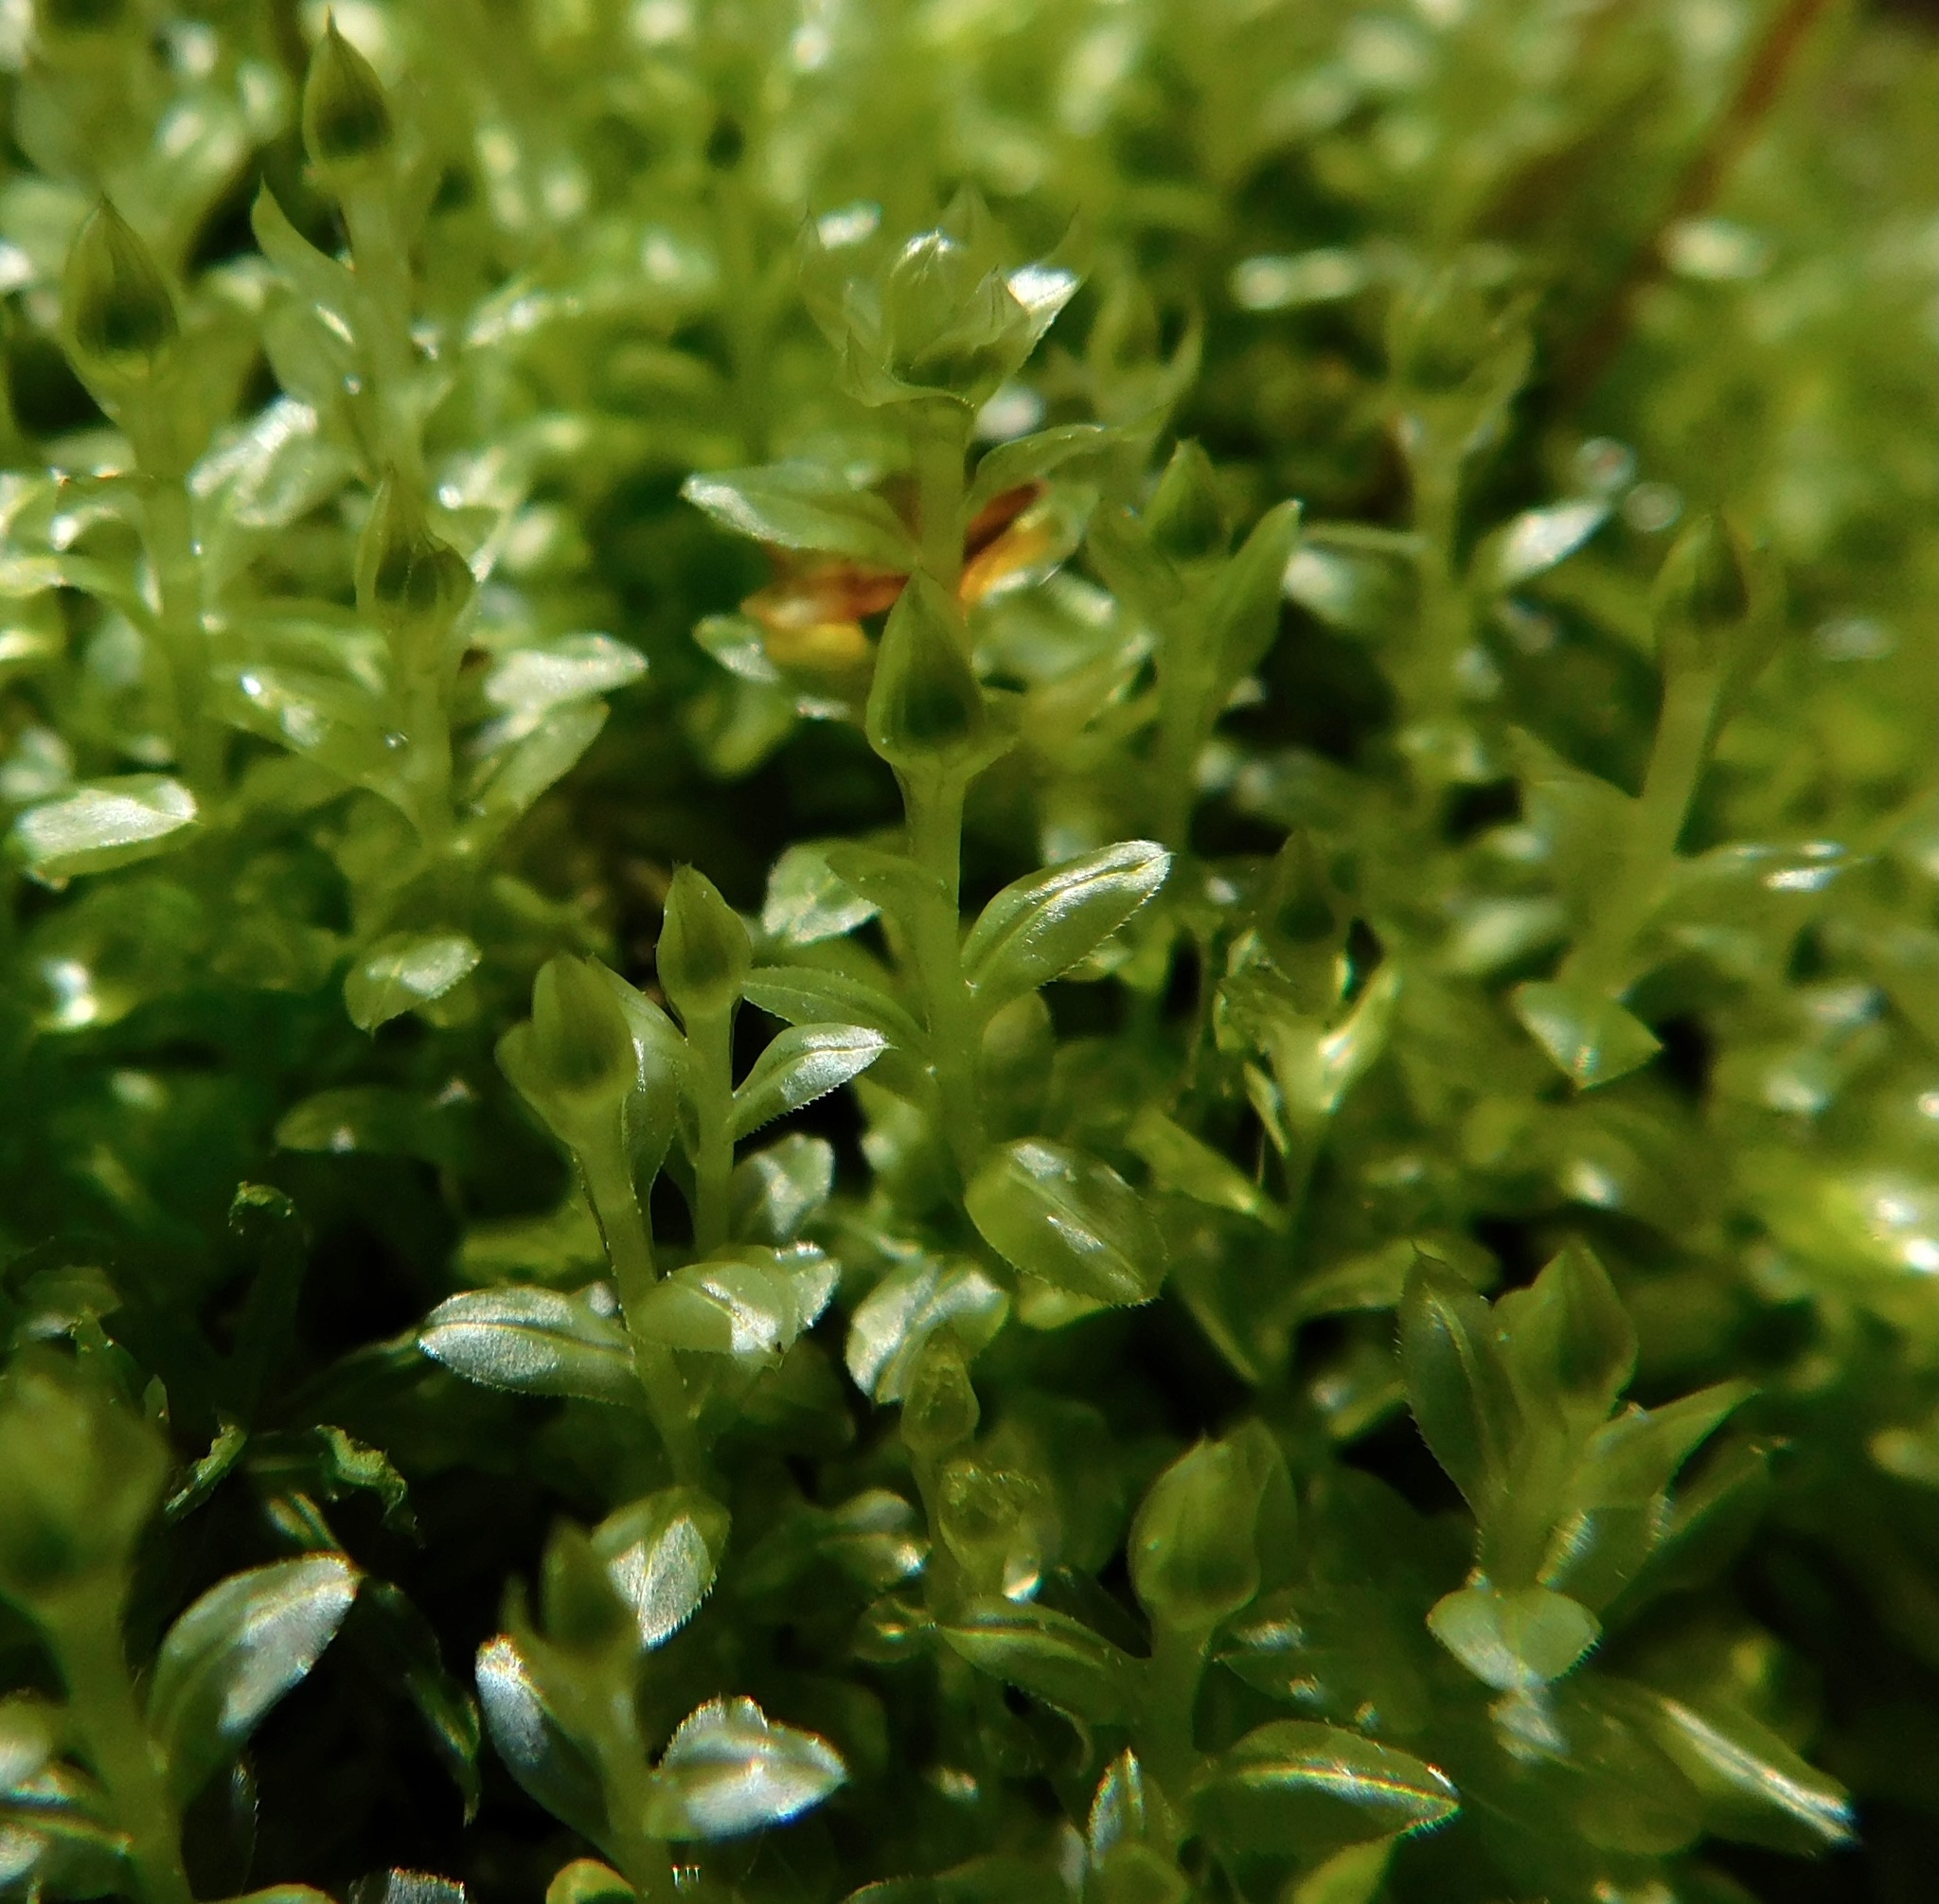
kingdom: Plantae
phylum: Bryophyta
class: Bryopsida
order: Bryales
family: Mniaceae
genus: Plagiomnium
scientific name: Plagiomnium ciliare
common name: Toothed leafy moss
